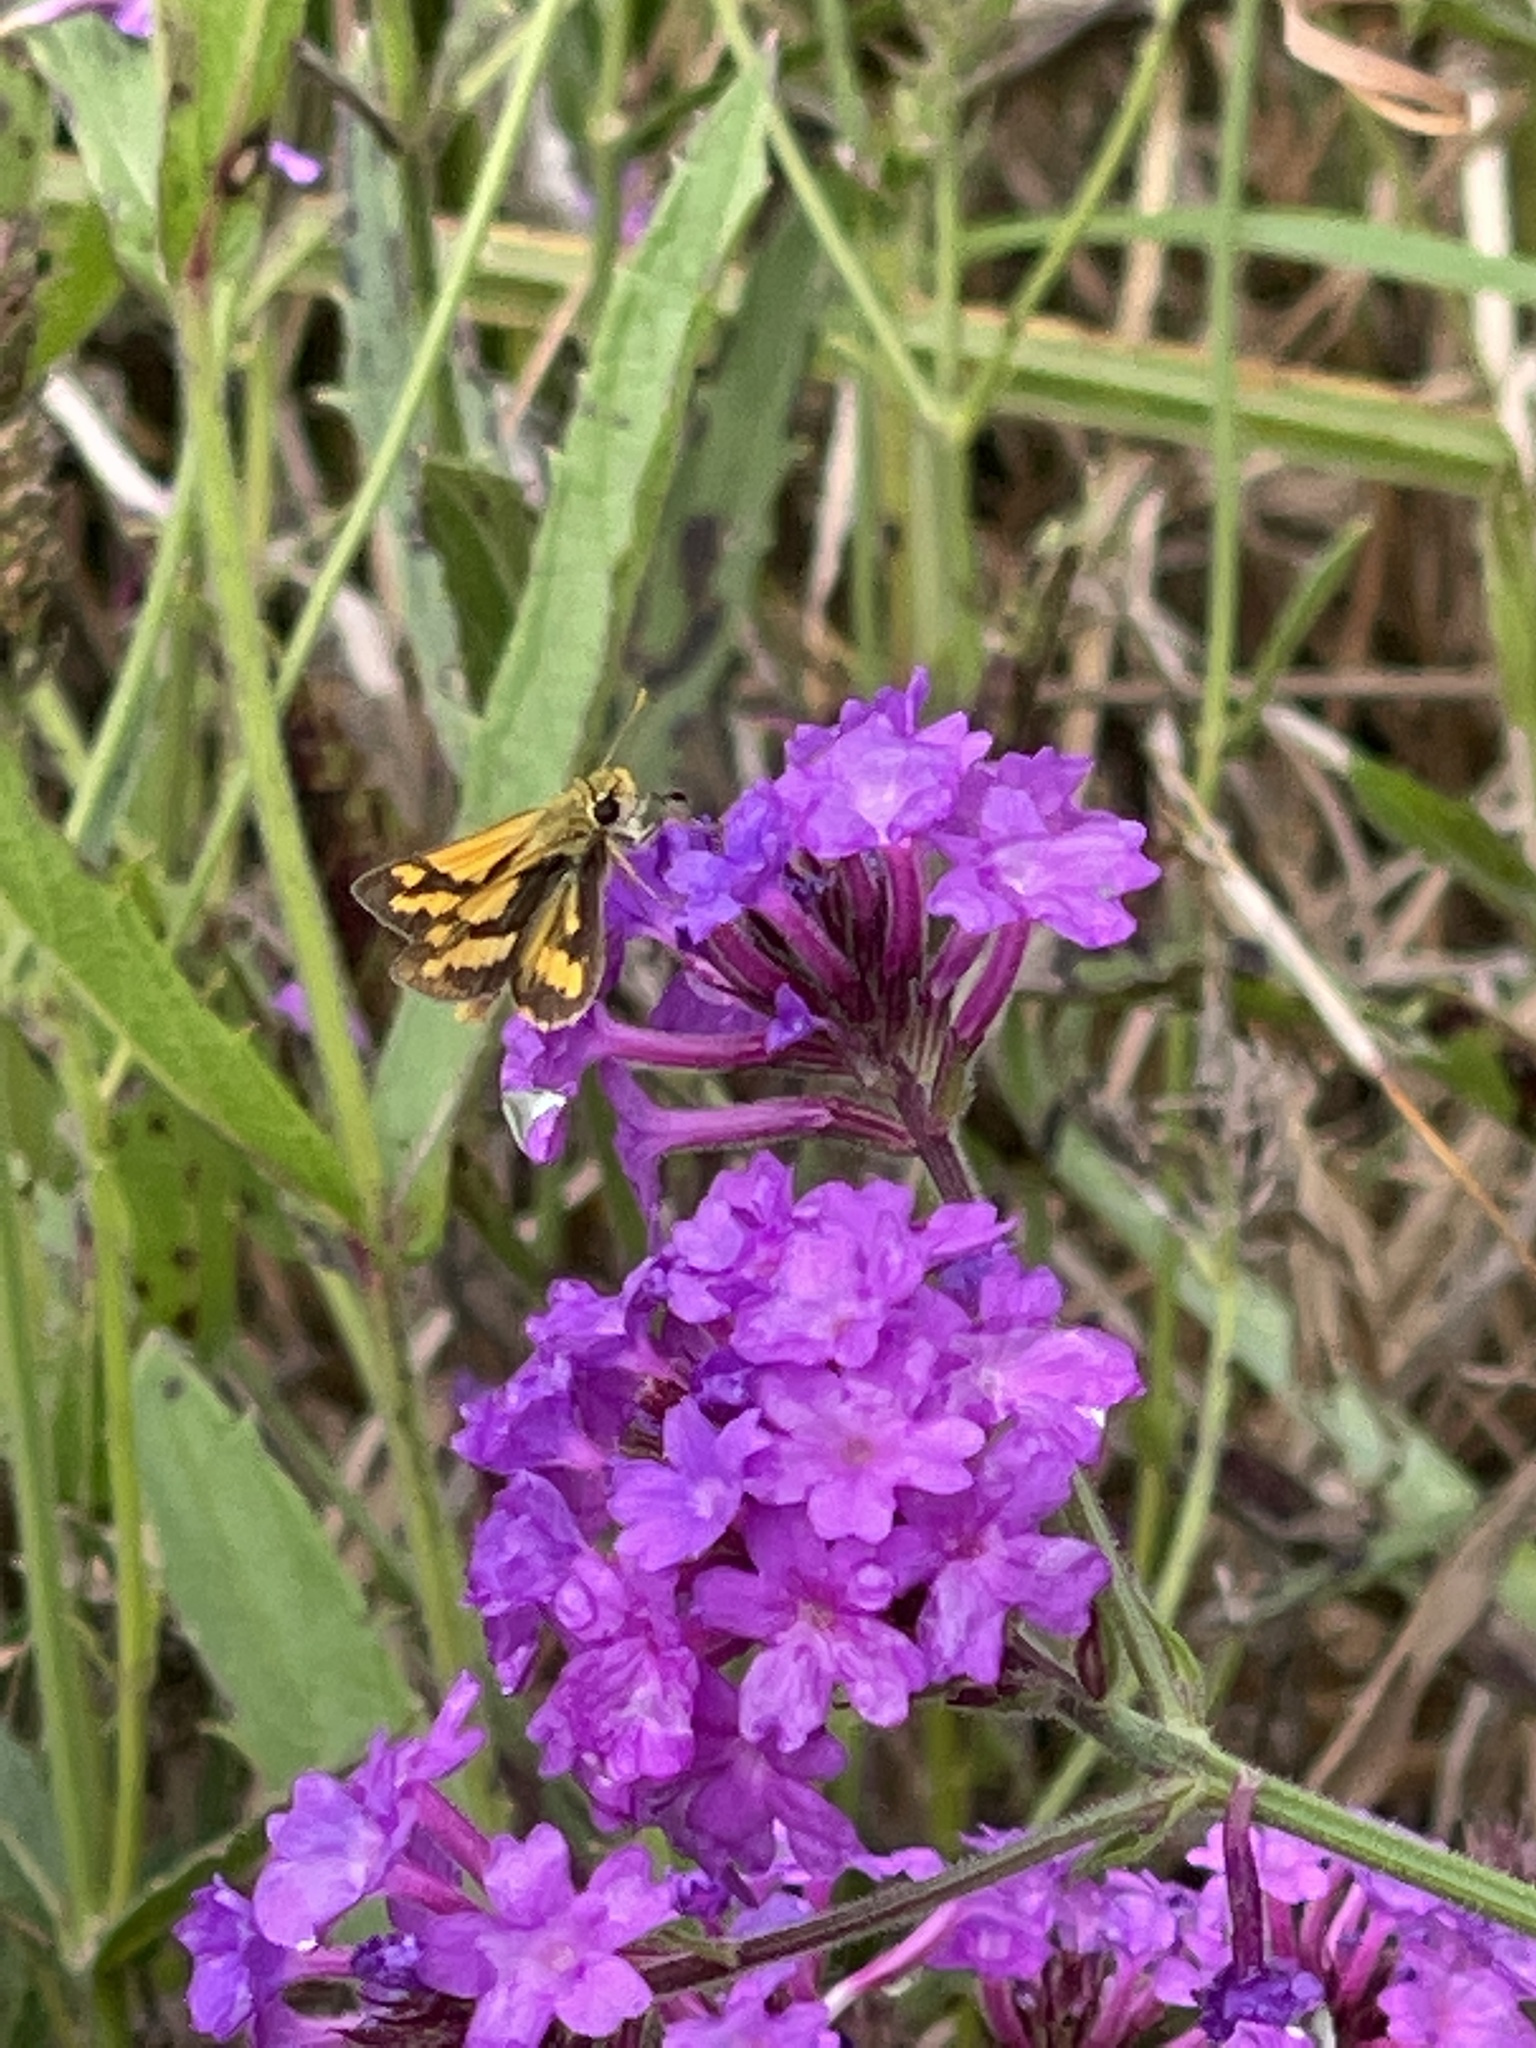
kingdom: Animalia
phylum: Arthropoda
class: Insecta
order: Lepidoptera
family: Hesperiidae
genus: Ocybadistes
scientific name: Ocybadistes flavovittata
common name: Narrow-brand grass-dart
